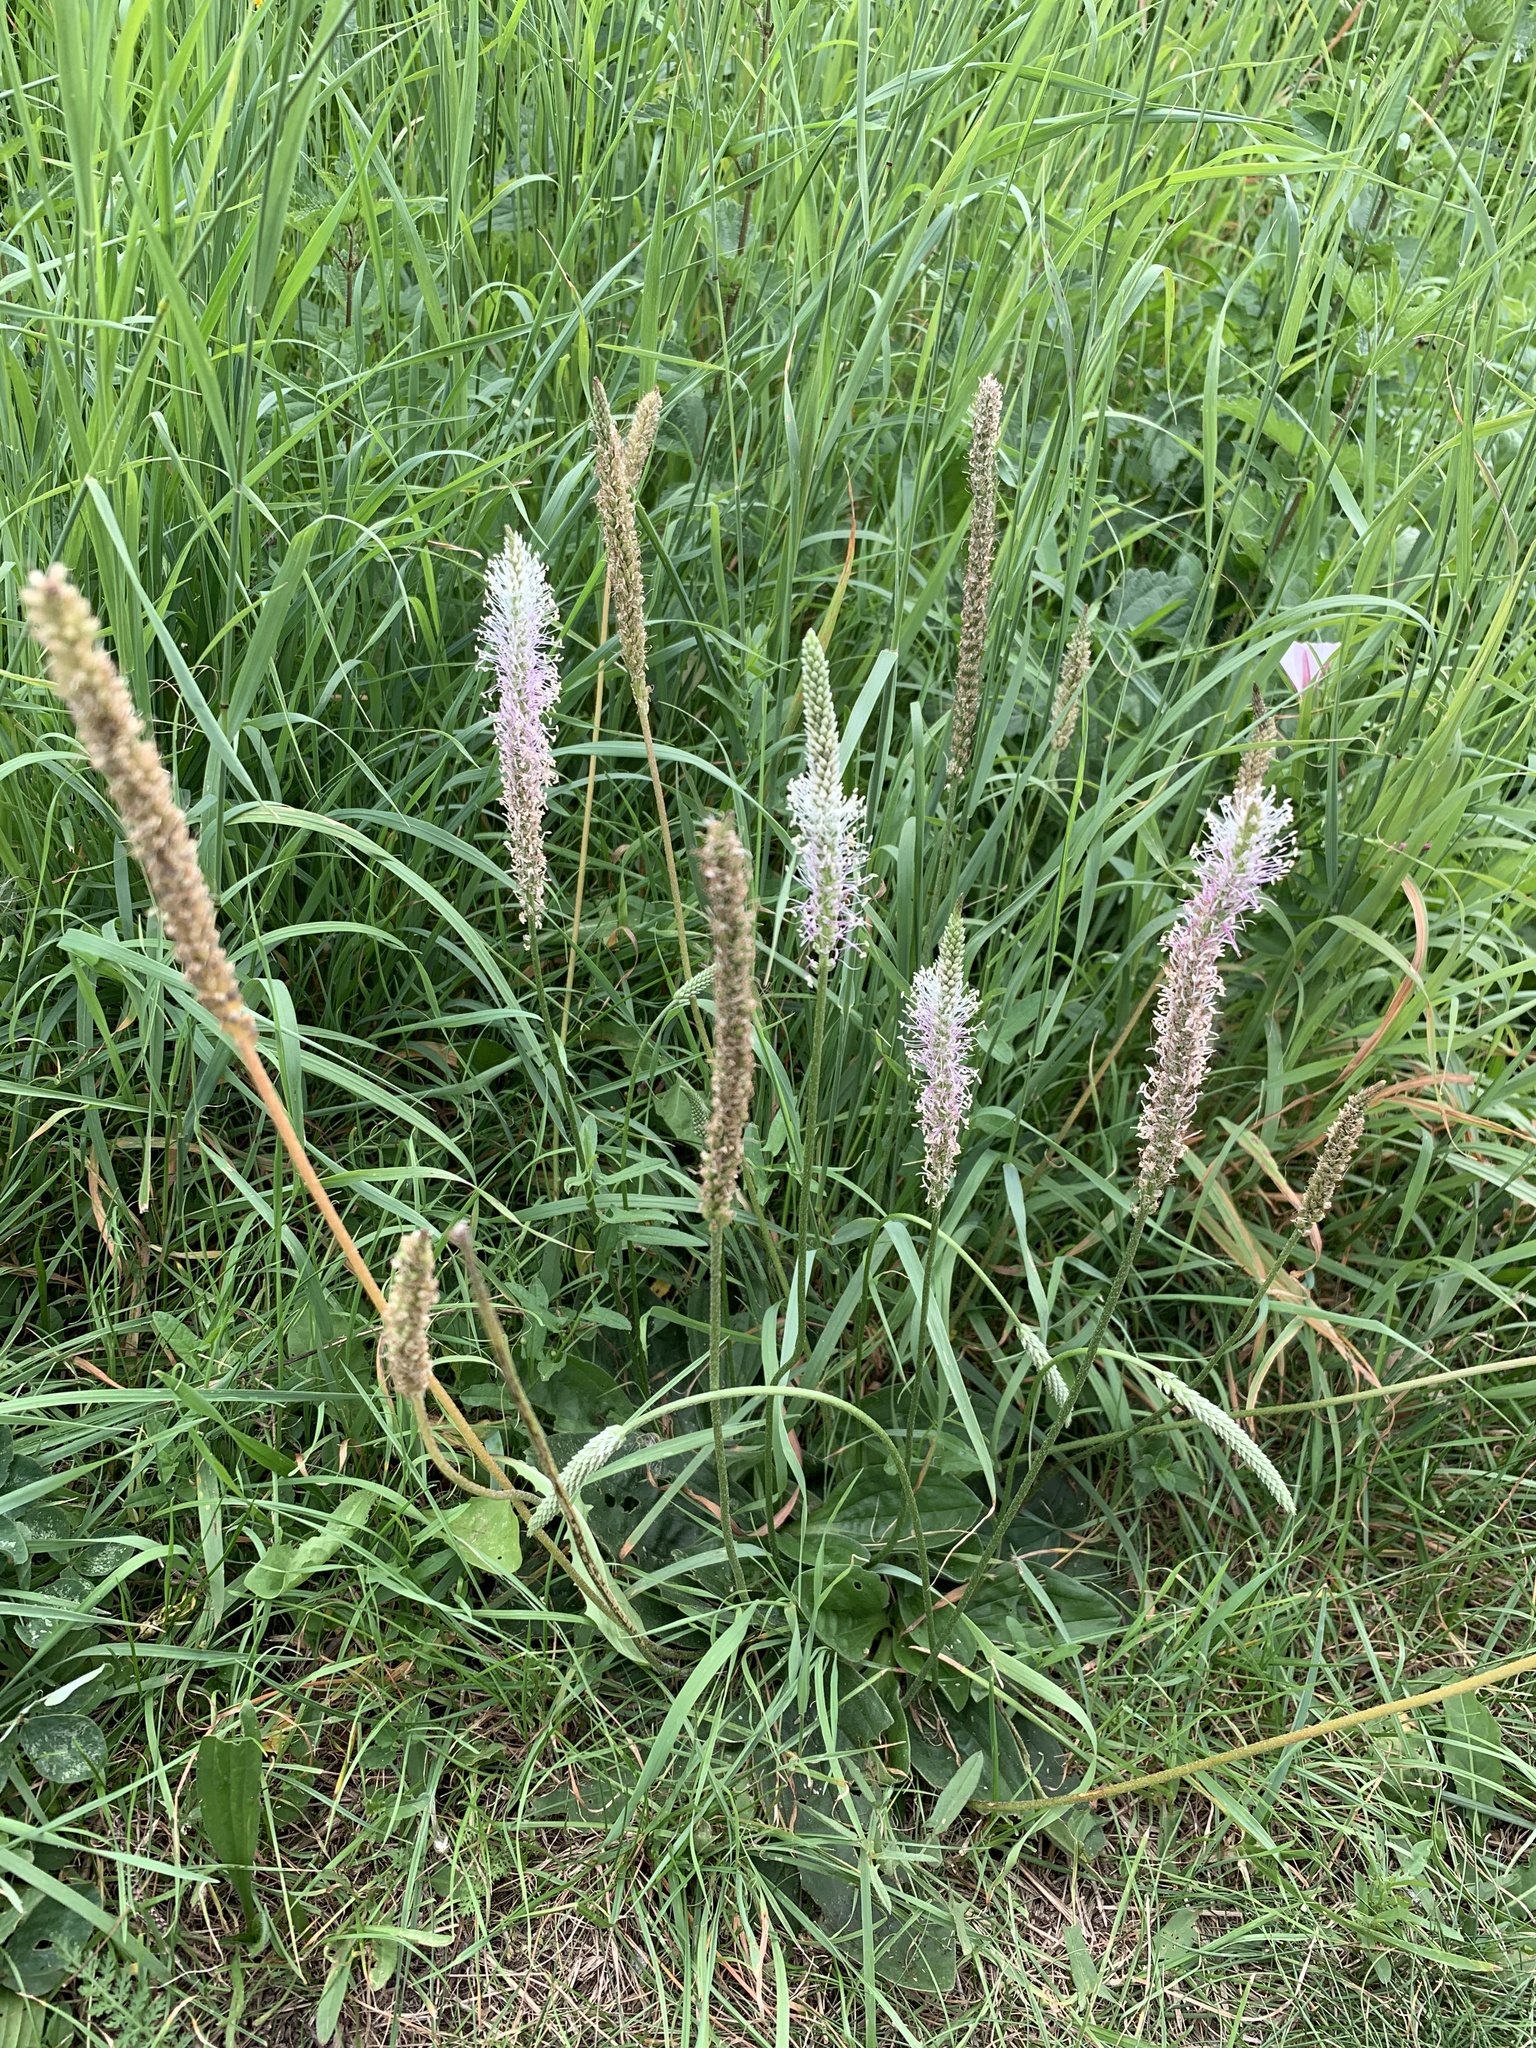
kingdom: Plantae
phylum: Tracheophyta
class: Magnoliopsida
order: Lamiales
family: Plantaginaceae
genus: Plantago
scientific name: Plantago media
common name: Hoary plantain
